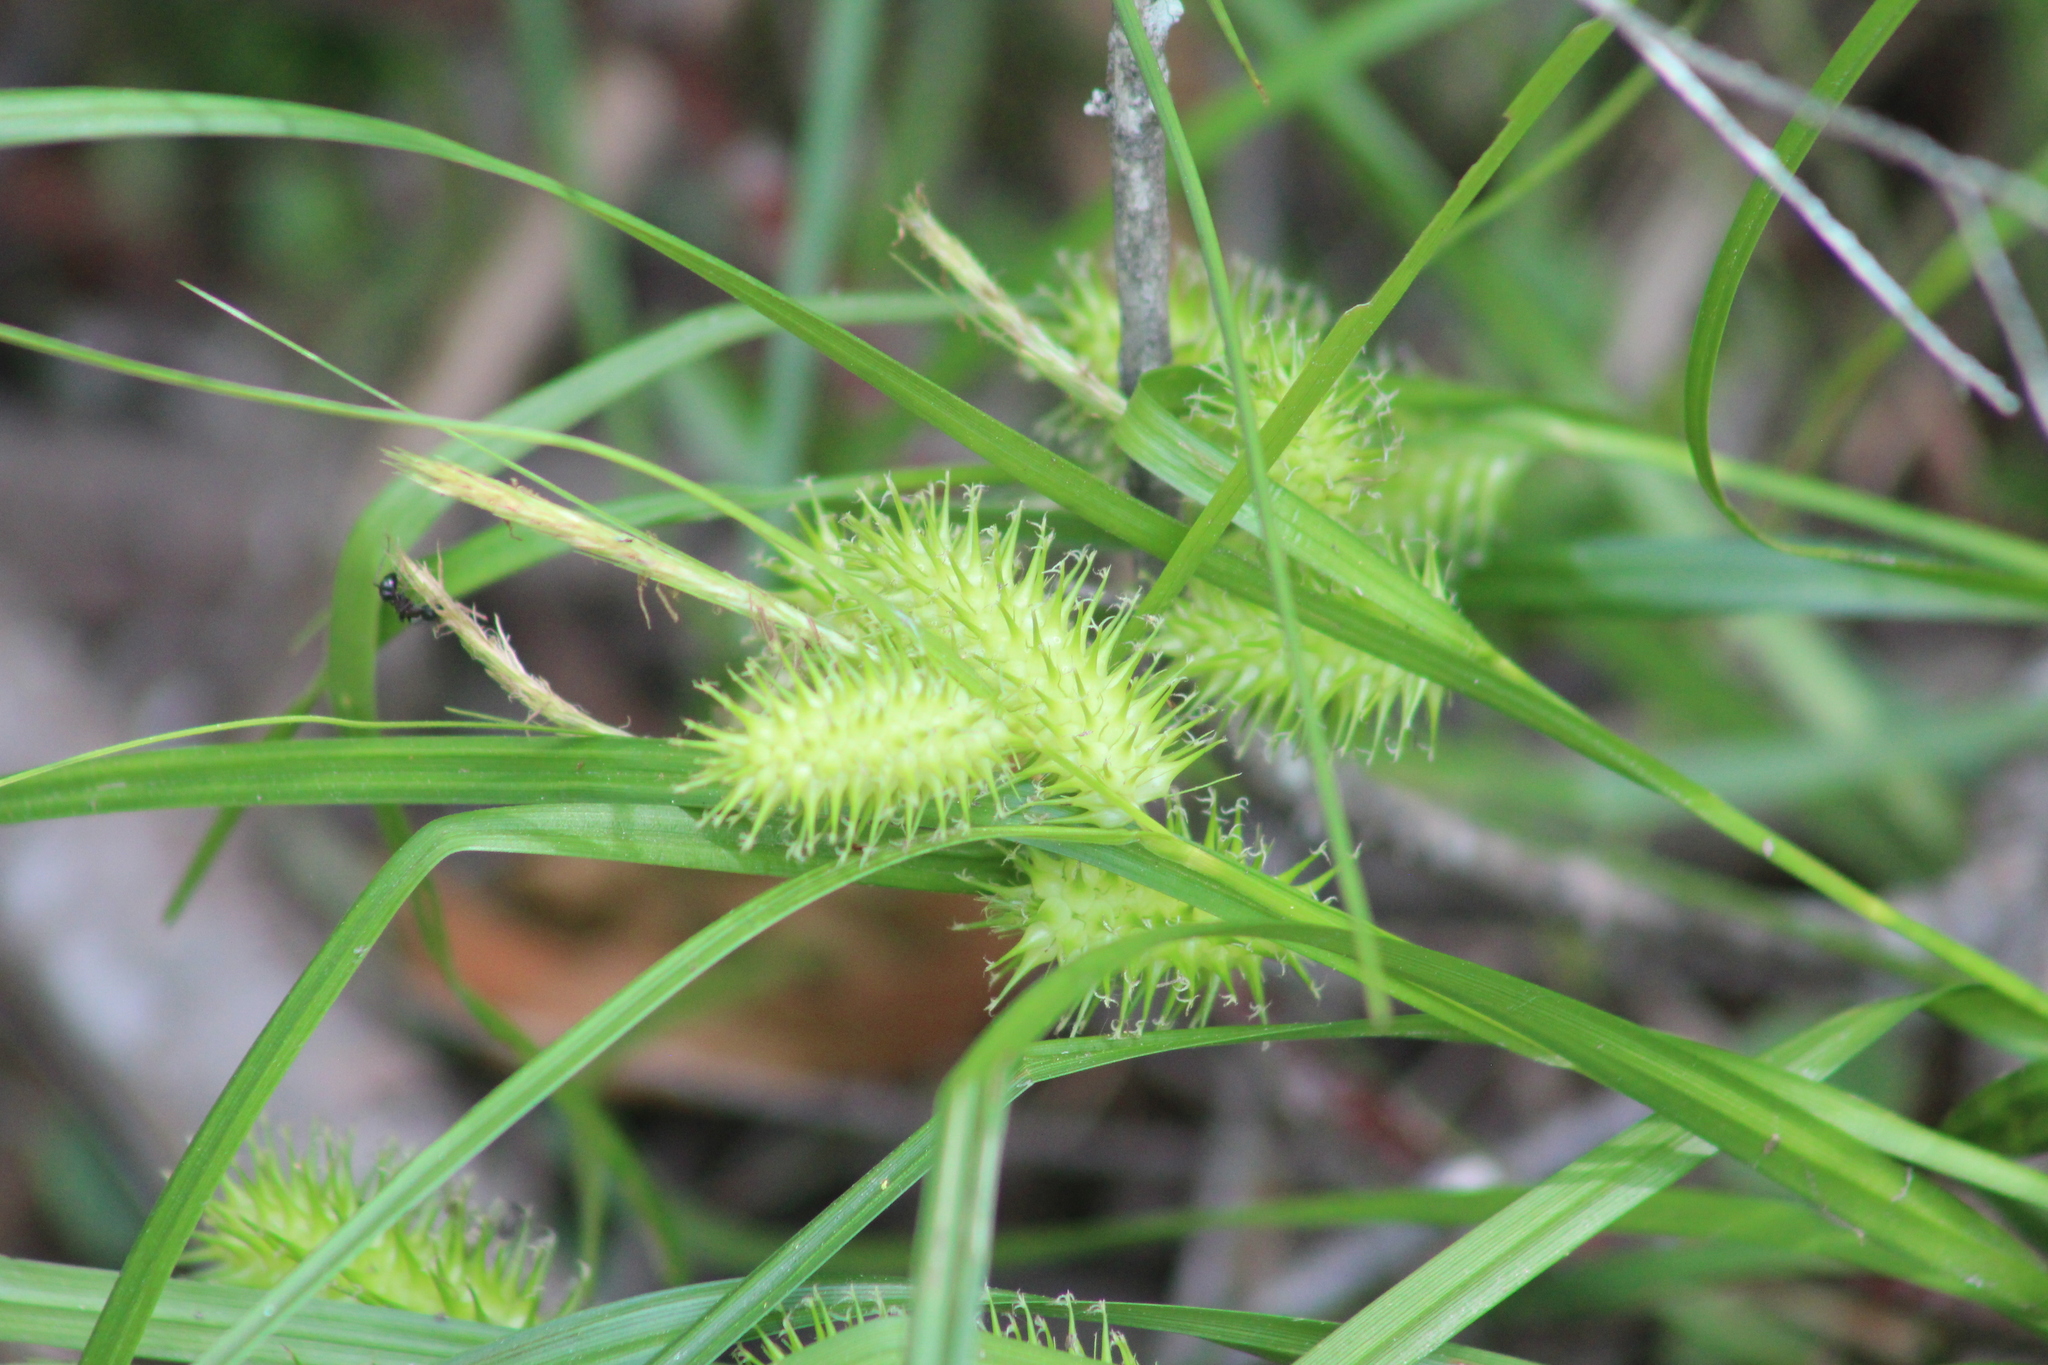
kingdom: Plantae
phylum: Tracheophyta
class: Liliopsida
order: Poales
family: Cyperaceae
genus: Carex
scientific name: Carex lurida
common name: Sallow sedge
